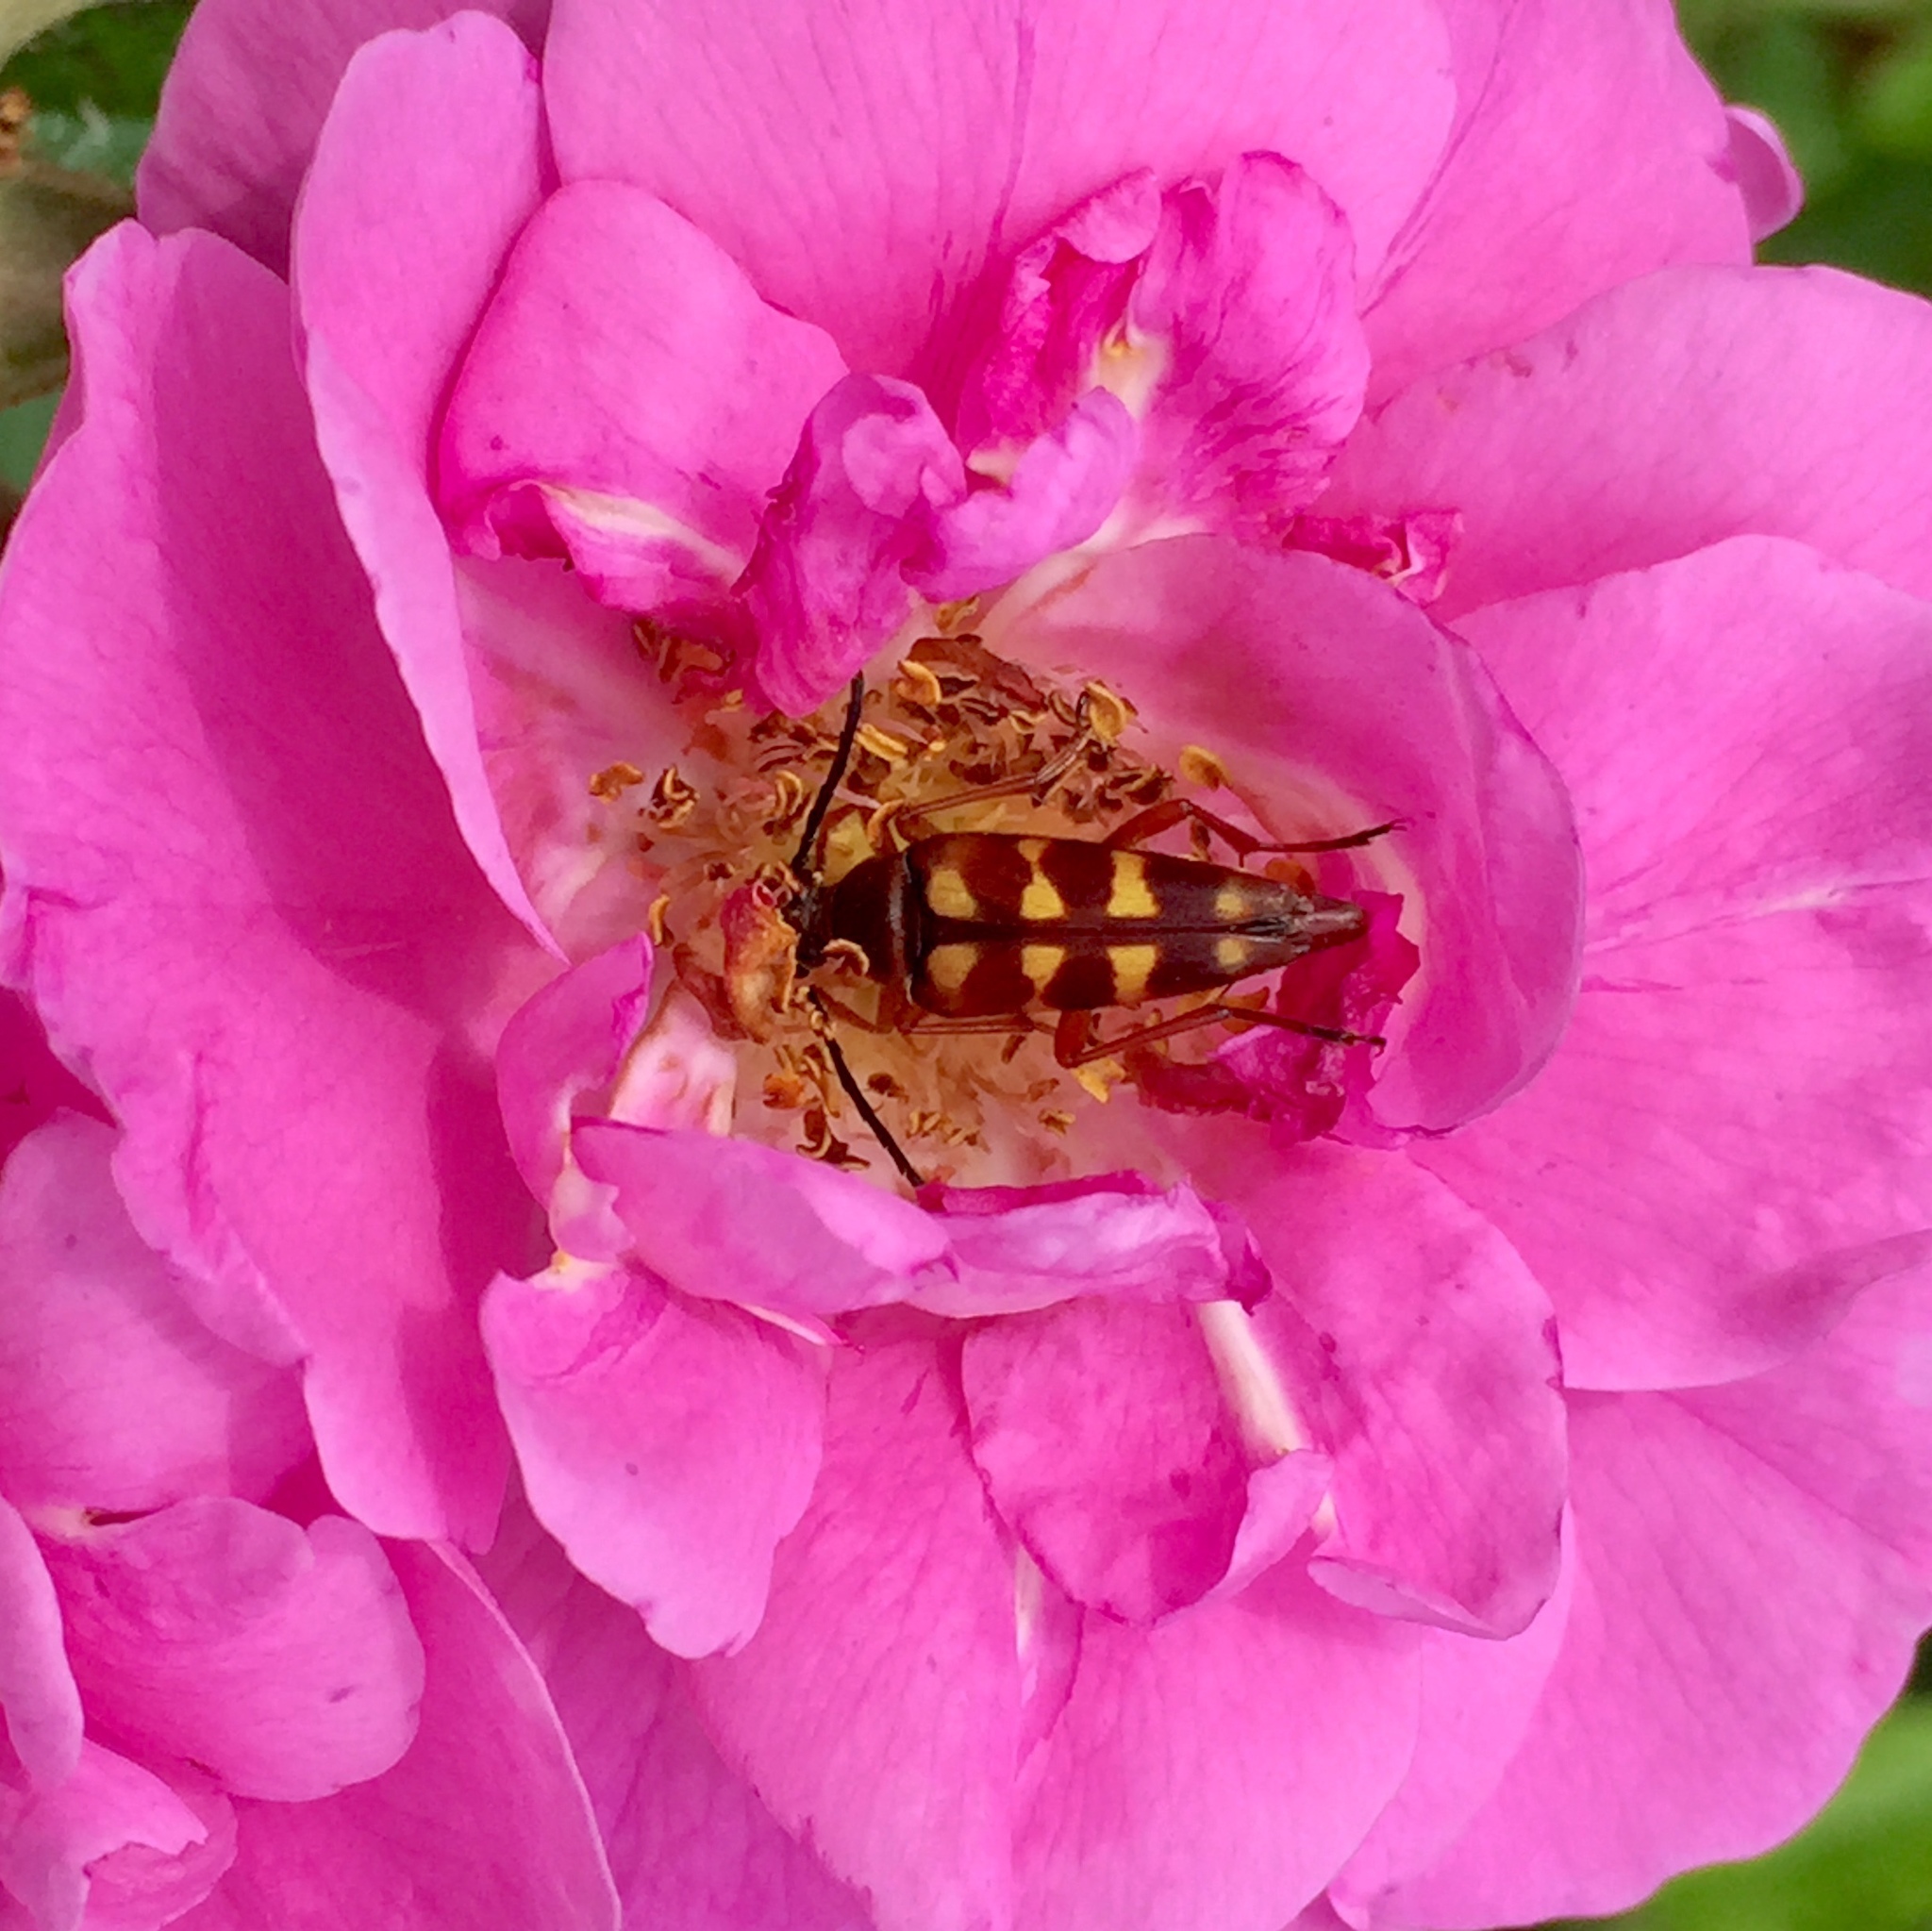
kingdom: Animalia
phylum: Arthropoda
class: Insecta
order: Coleoptera
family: Cerambycidae
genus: Typocerus
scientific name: Typocerus velutinus
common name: Banded longhorn beetle
